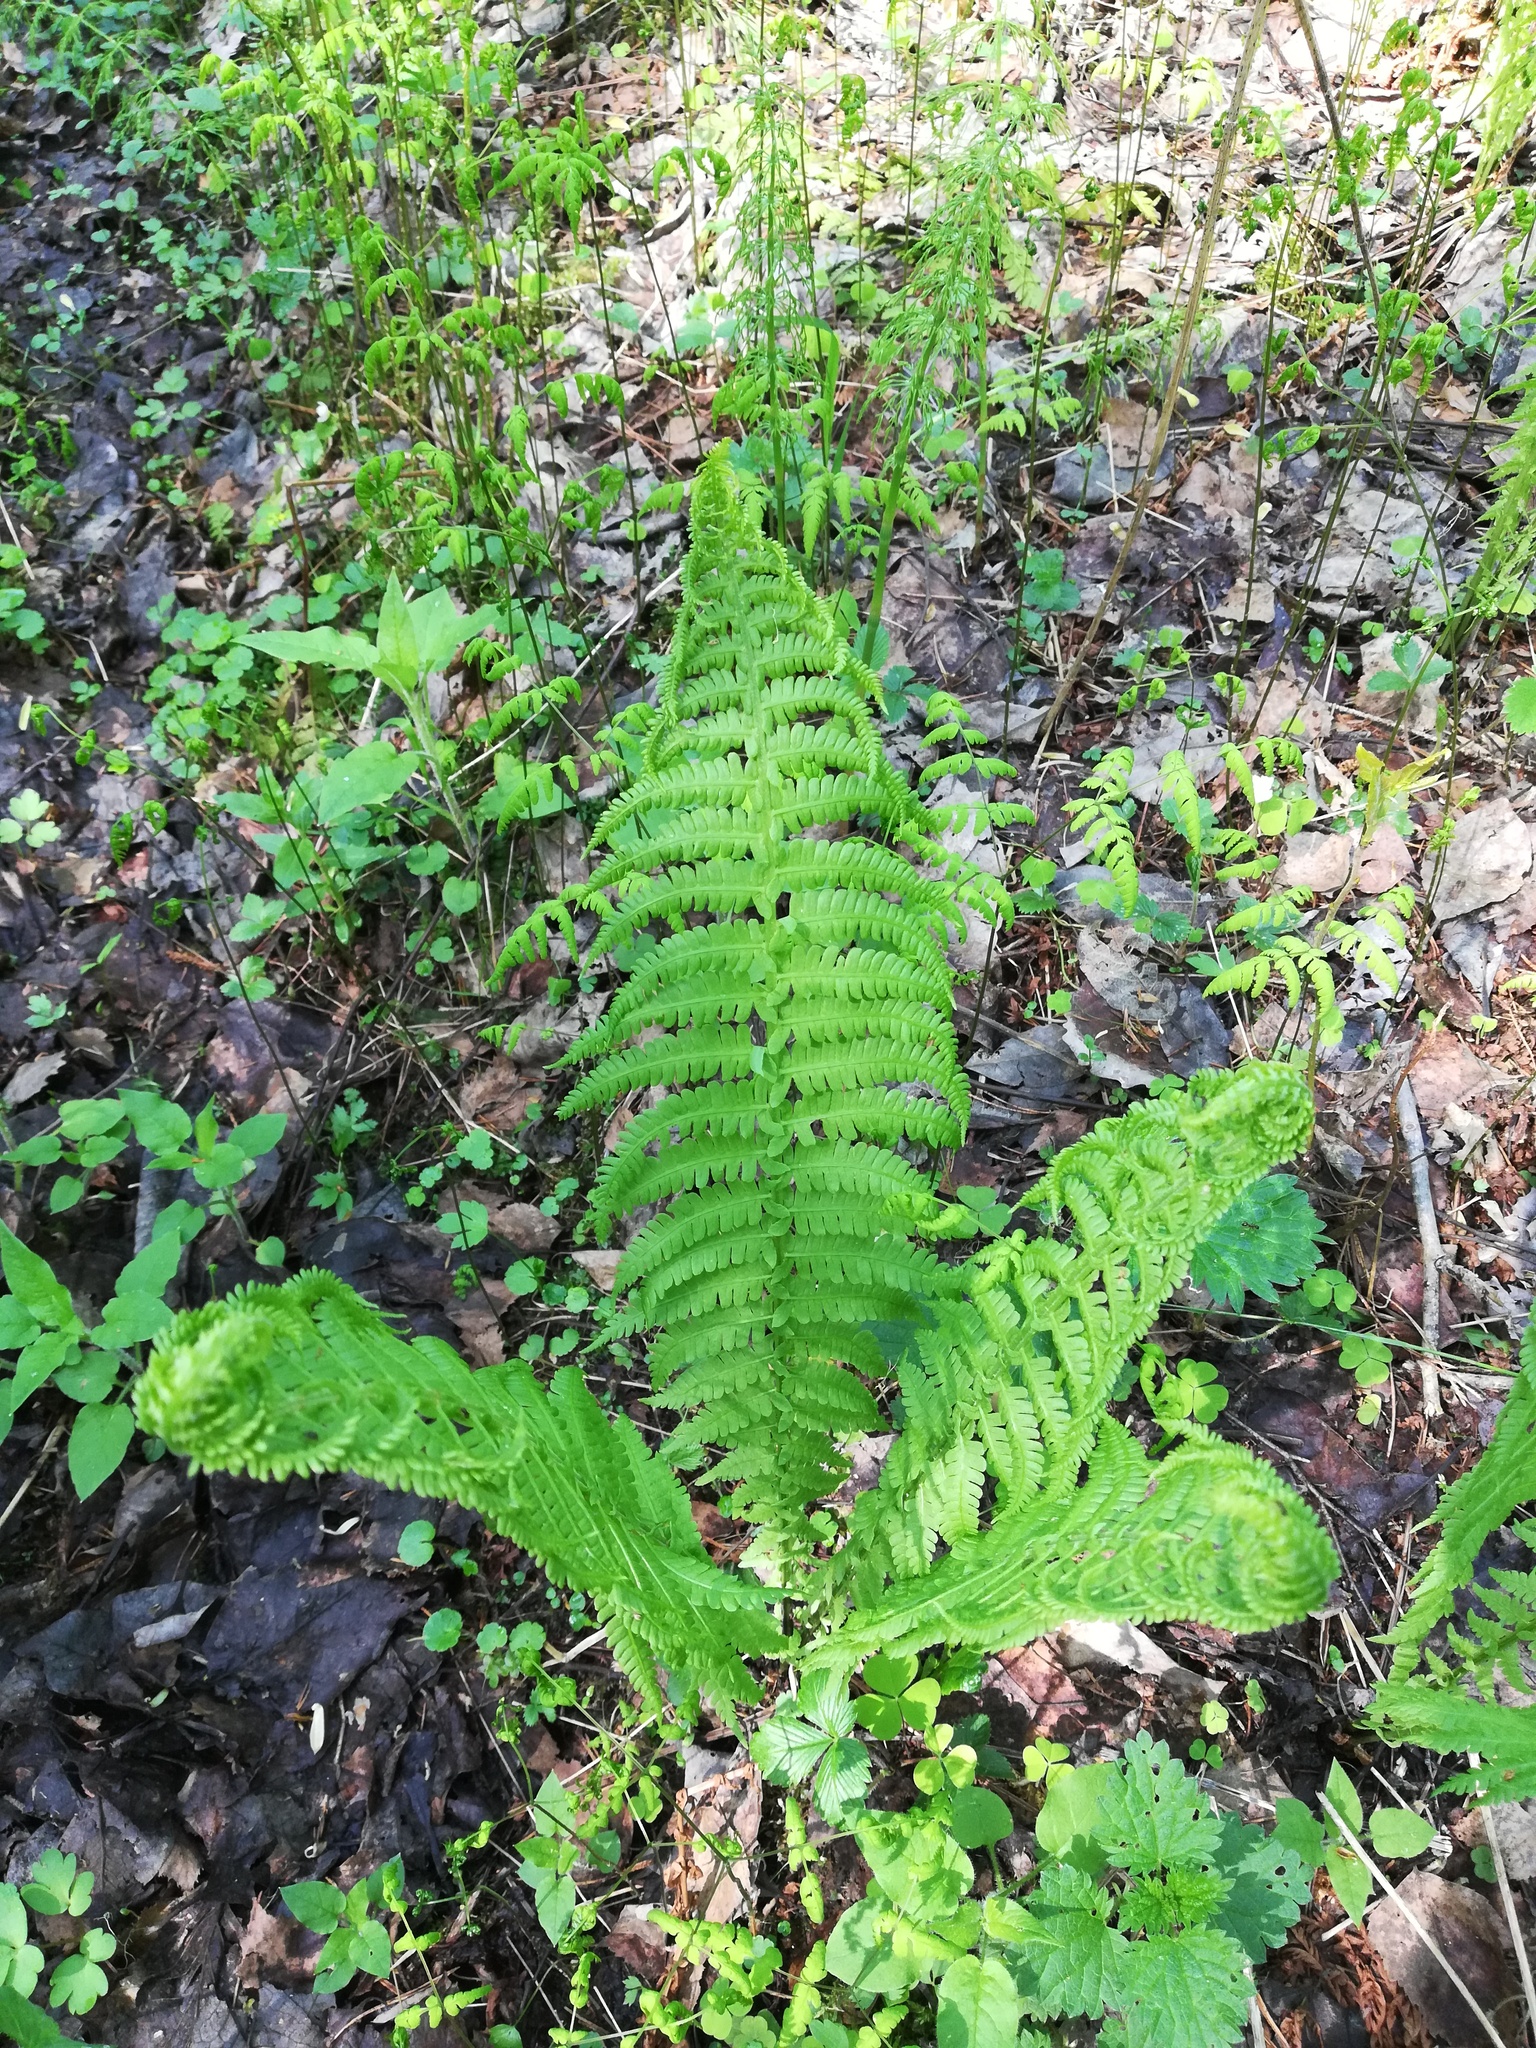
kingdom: Plantae
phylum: Tracheophyta
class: Polypodiopsida
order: Polypodiales
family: Onocleaceae
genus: Matteuccia
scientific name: Matteuccia struthiopteris
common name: Ostrich fern
